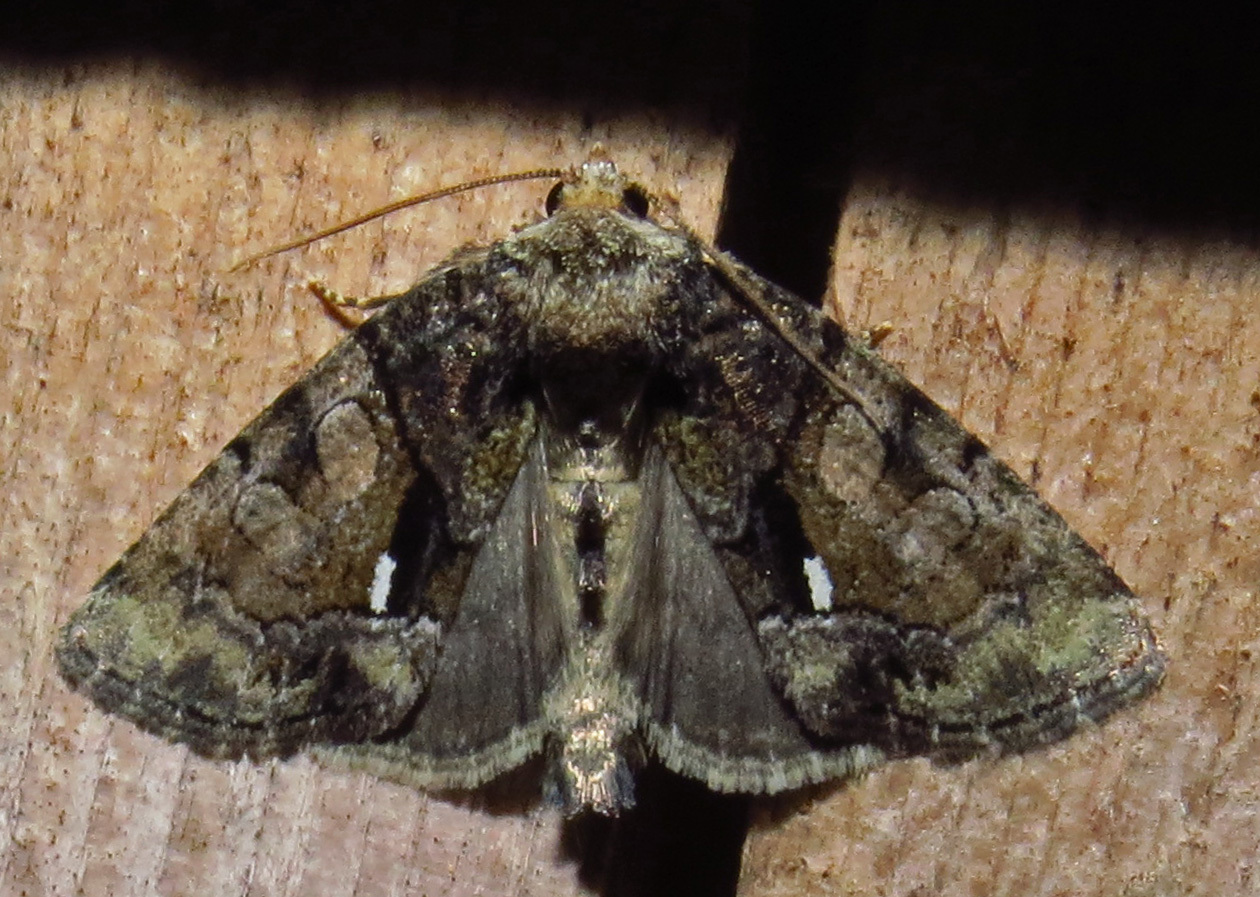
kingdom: Animalia
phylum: Arthropoda
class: Insecta
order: Lepidoptera
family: Noctuidae
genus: Chytonix
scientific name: Chytonix palliatricula
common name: Cloaked marvel
